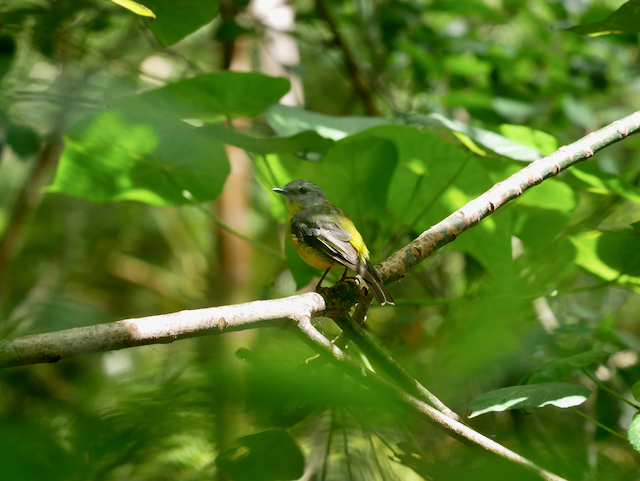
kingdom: Animalia
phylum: Chordata
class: Aves
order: Passeriformes
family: Petroicidae
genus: Eopsaltria
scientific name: Eopsaltria australis
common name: Eastern yellow robin
